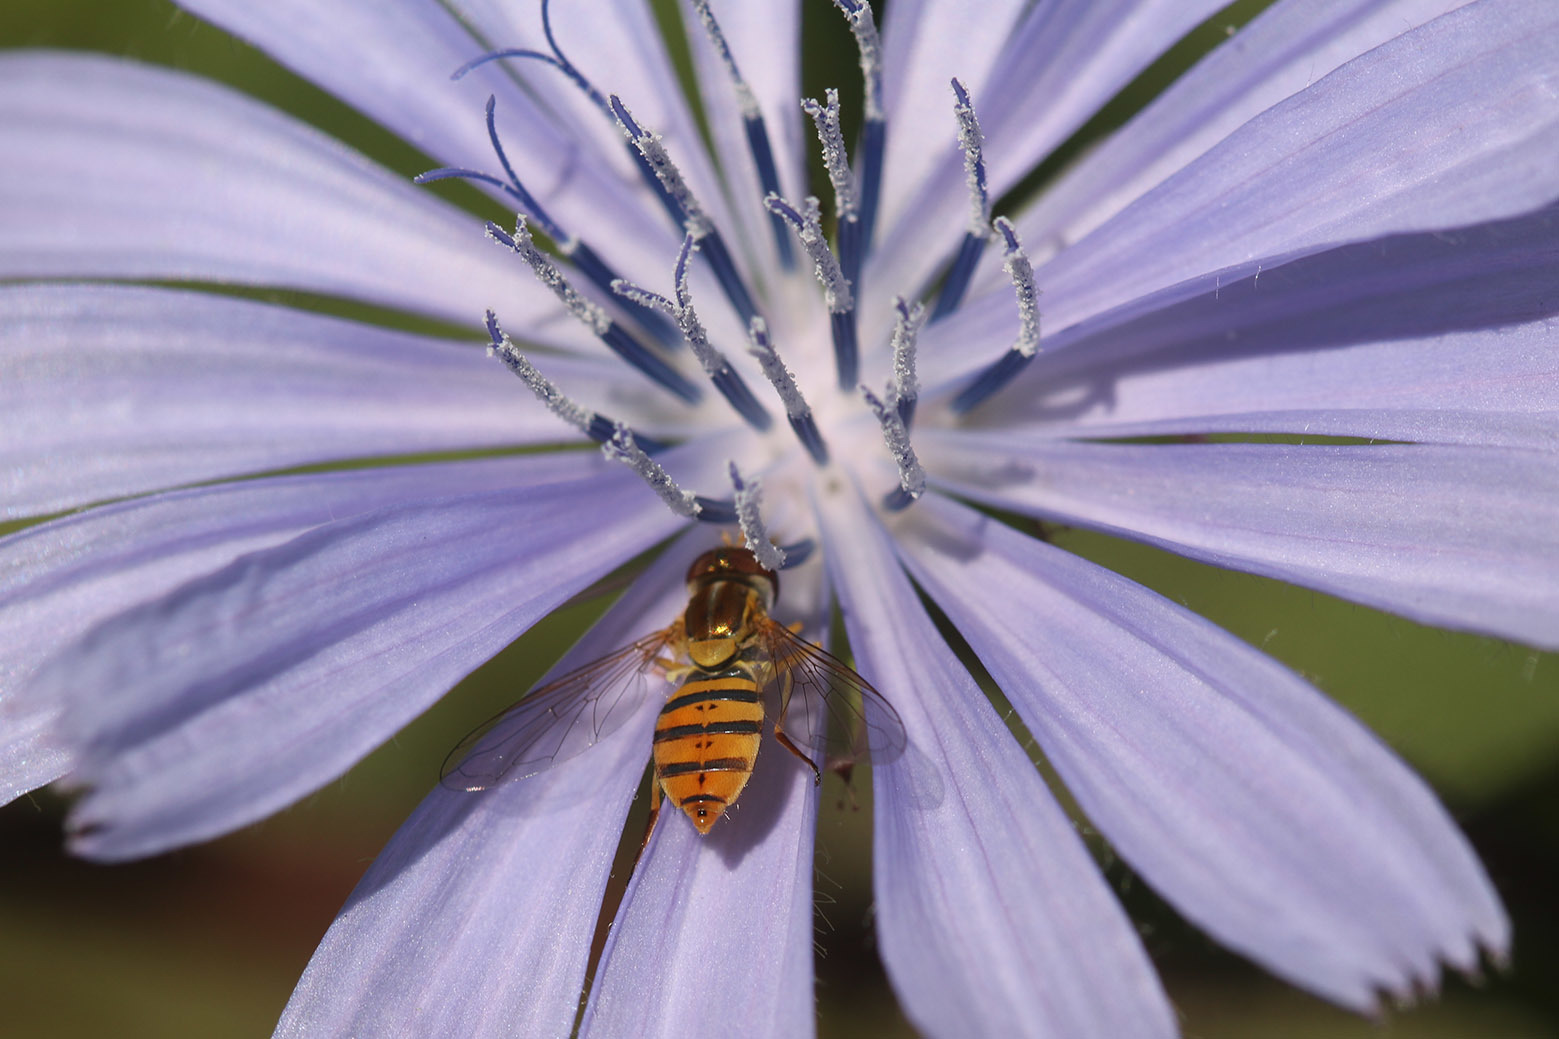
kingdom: Animalia
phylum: Arthropoda
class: Insecta
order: Diptera
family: Syrphidae
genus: Toxomerus
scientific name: Toxomerus
